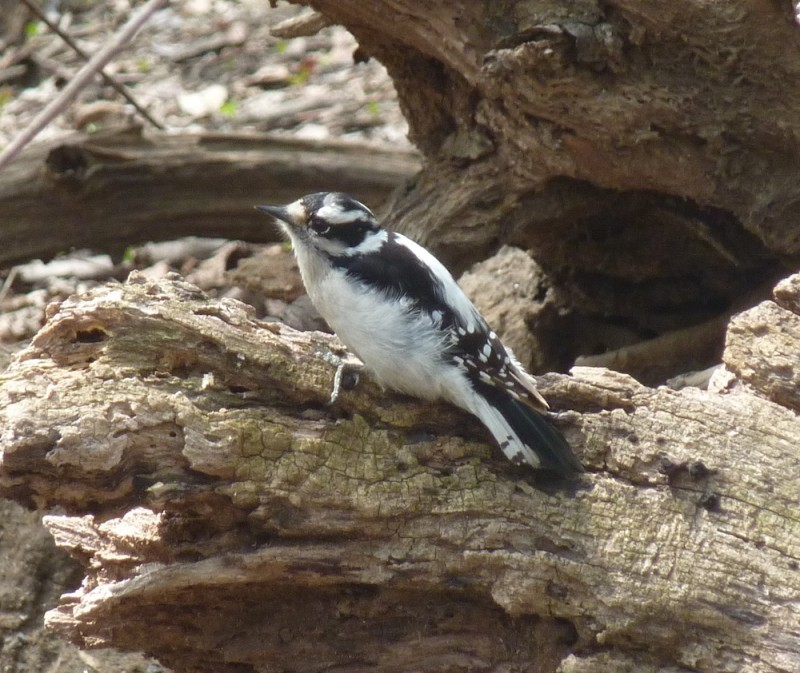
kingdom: Animalia
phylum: Chordata
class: Aves
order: Piciformes
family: Picidae
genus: Dryobates
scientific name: Dryobates pubescens
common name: Downy woodpecker
